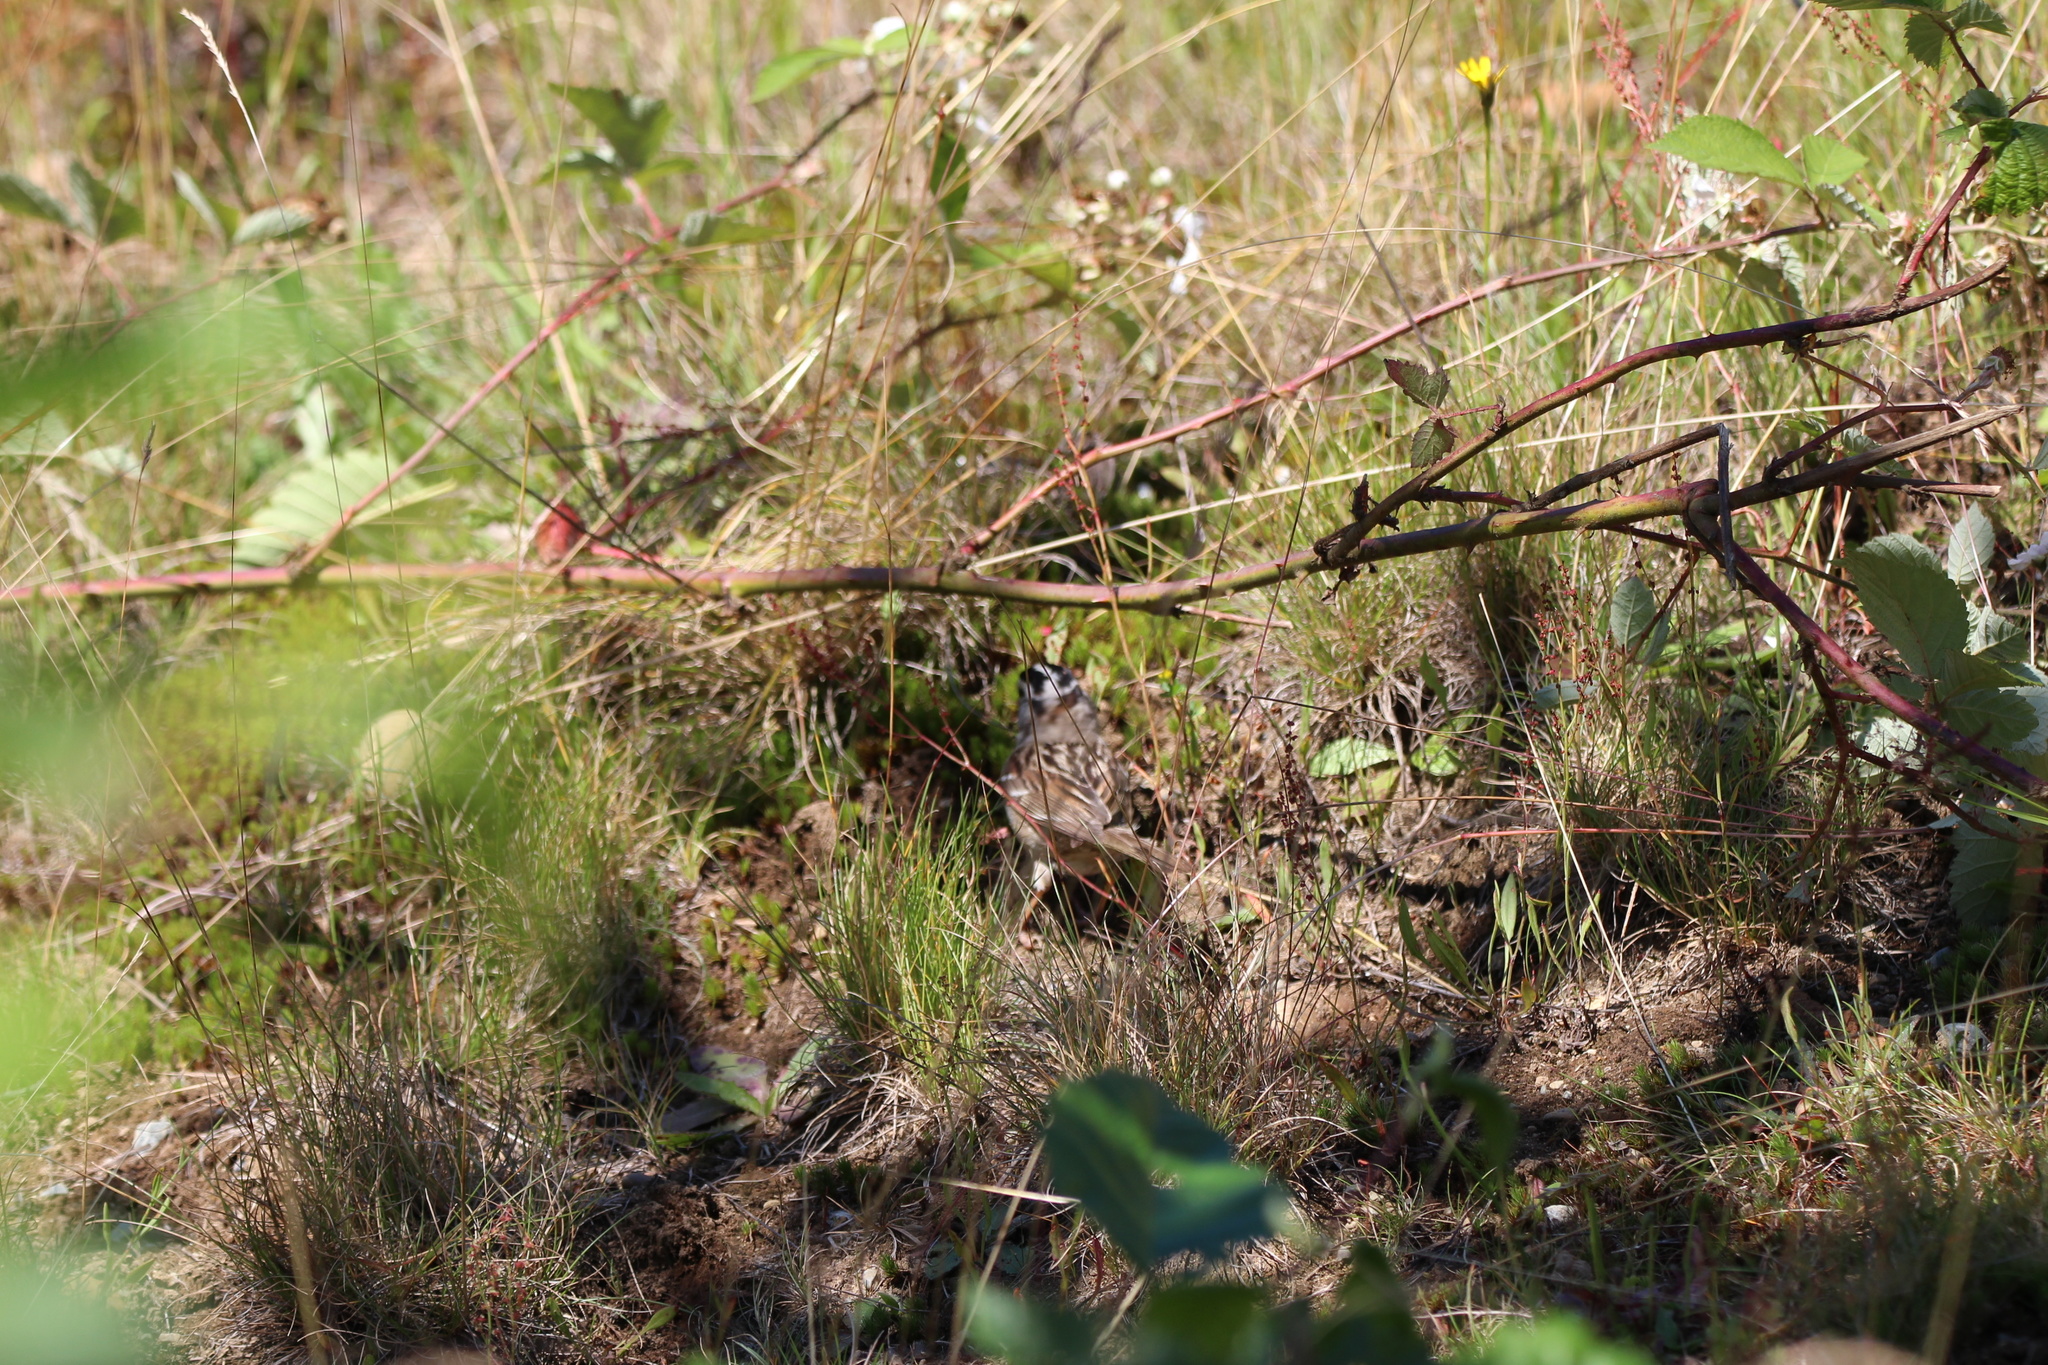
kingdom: Animalia
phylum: Chordata
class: Aves
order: Passeriformes
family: Passerellidae
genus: Zonotrichia
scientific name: Zonotrichia leucophrys
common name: White-crowned sparrow
